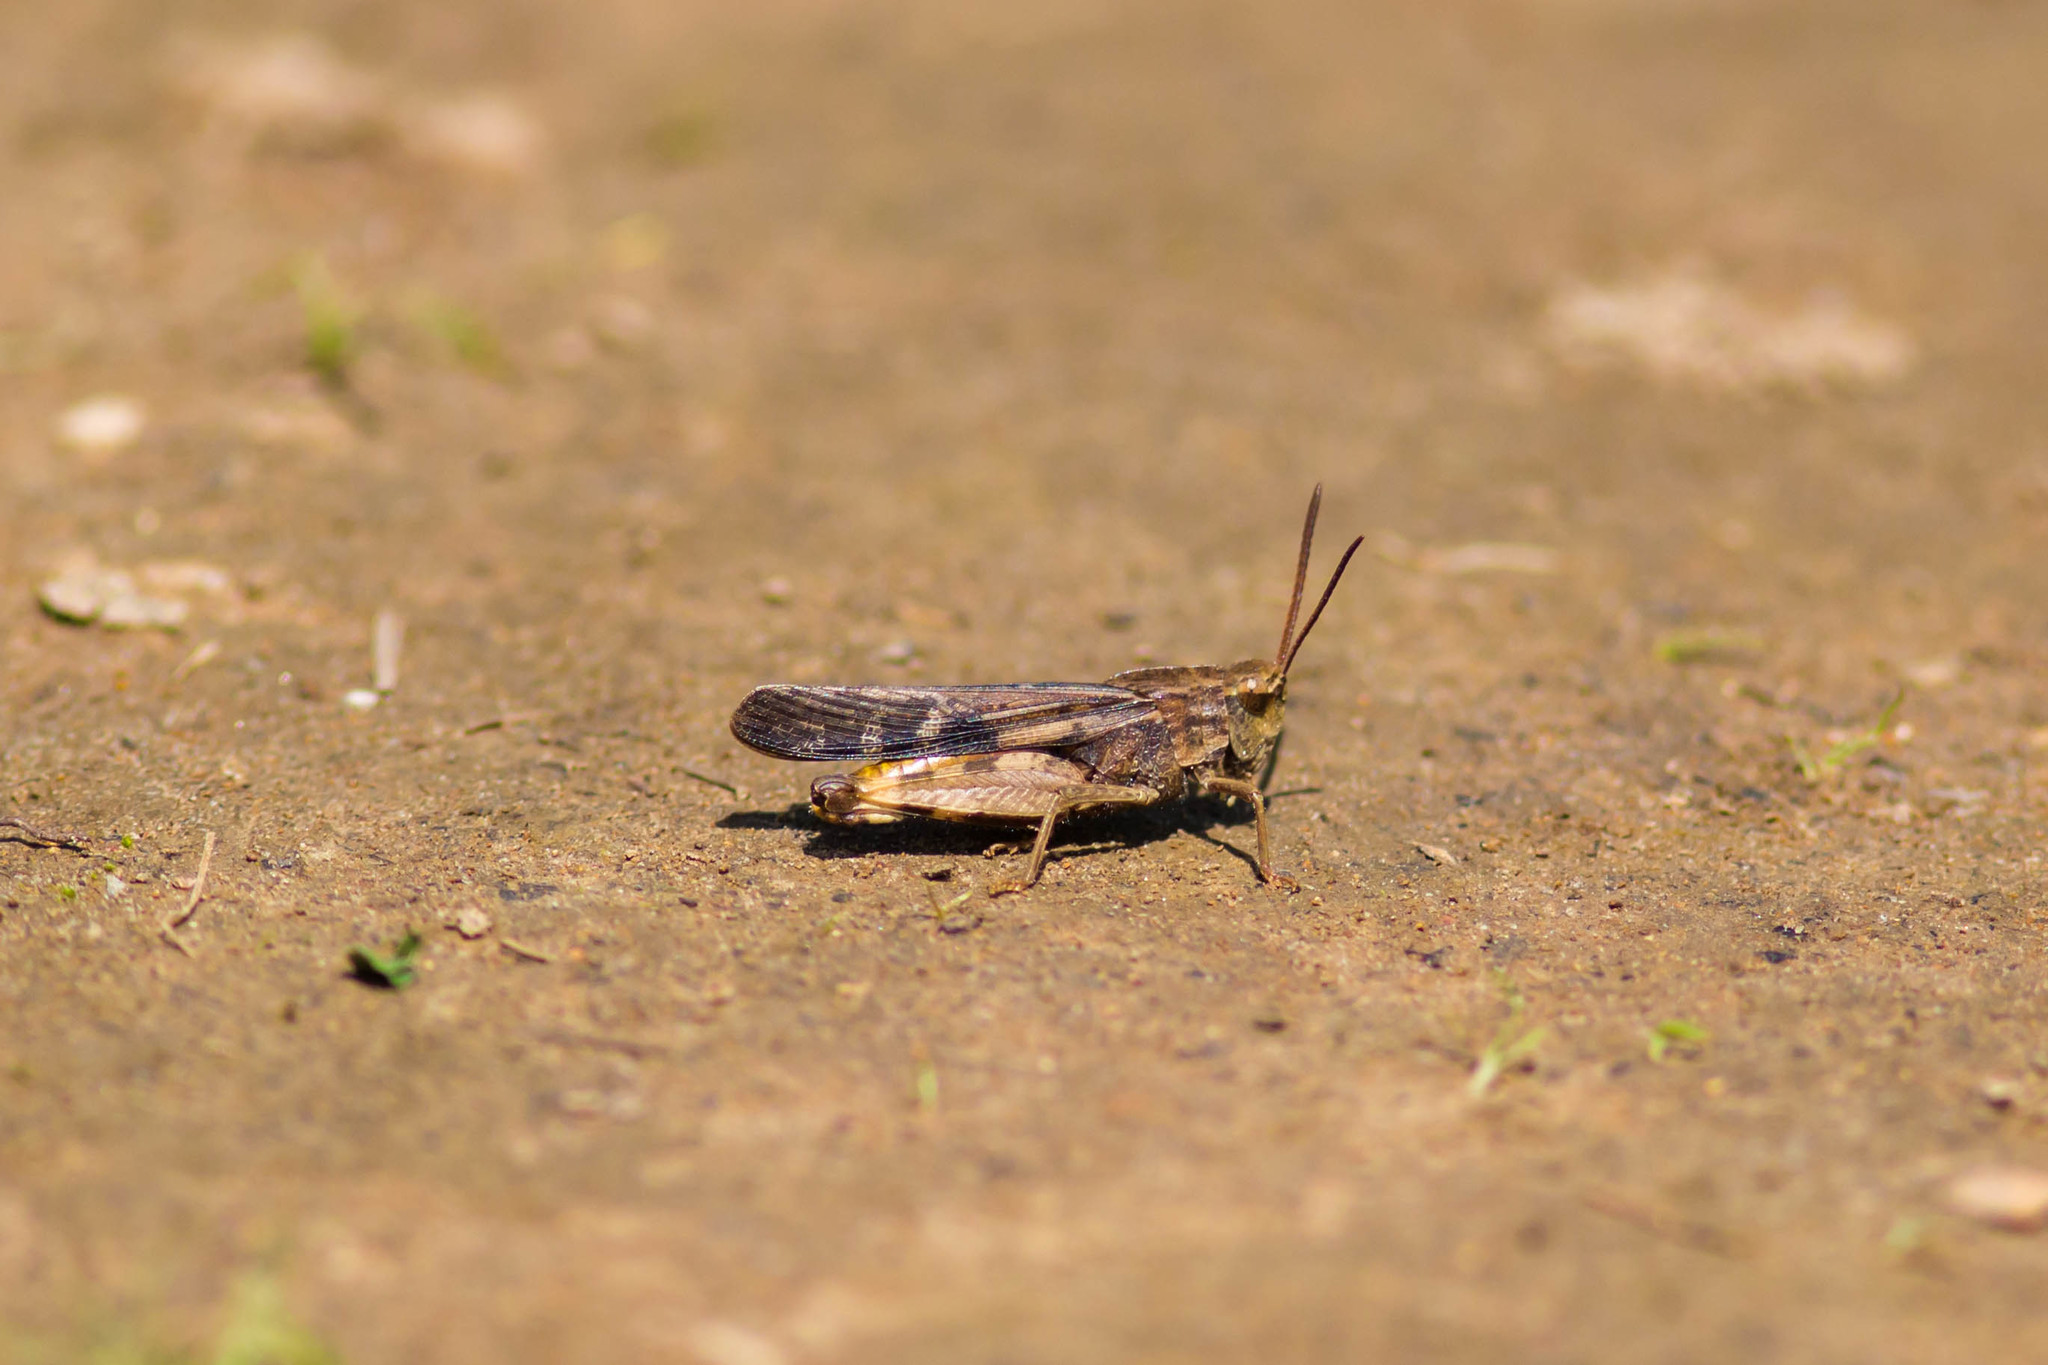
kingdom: Animalia
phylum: Arthropoda
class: Insecta
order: Orthoptera
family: Acrididae
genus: Chortophaga
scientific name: Chortophaga viridifasciata
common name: Green-striped grasshopper
